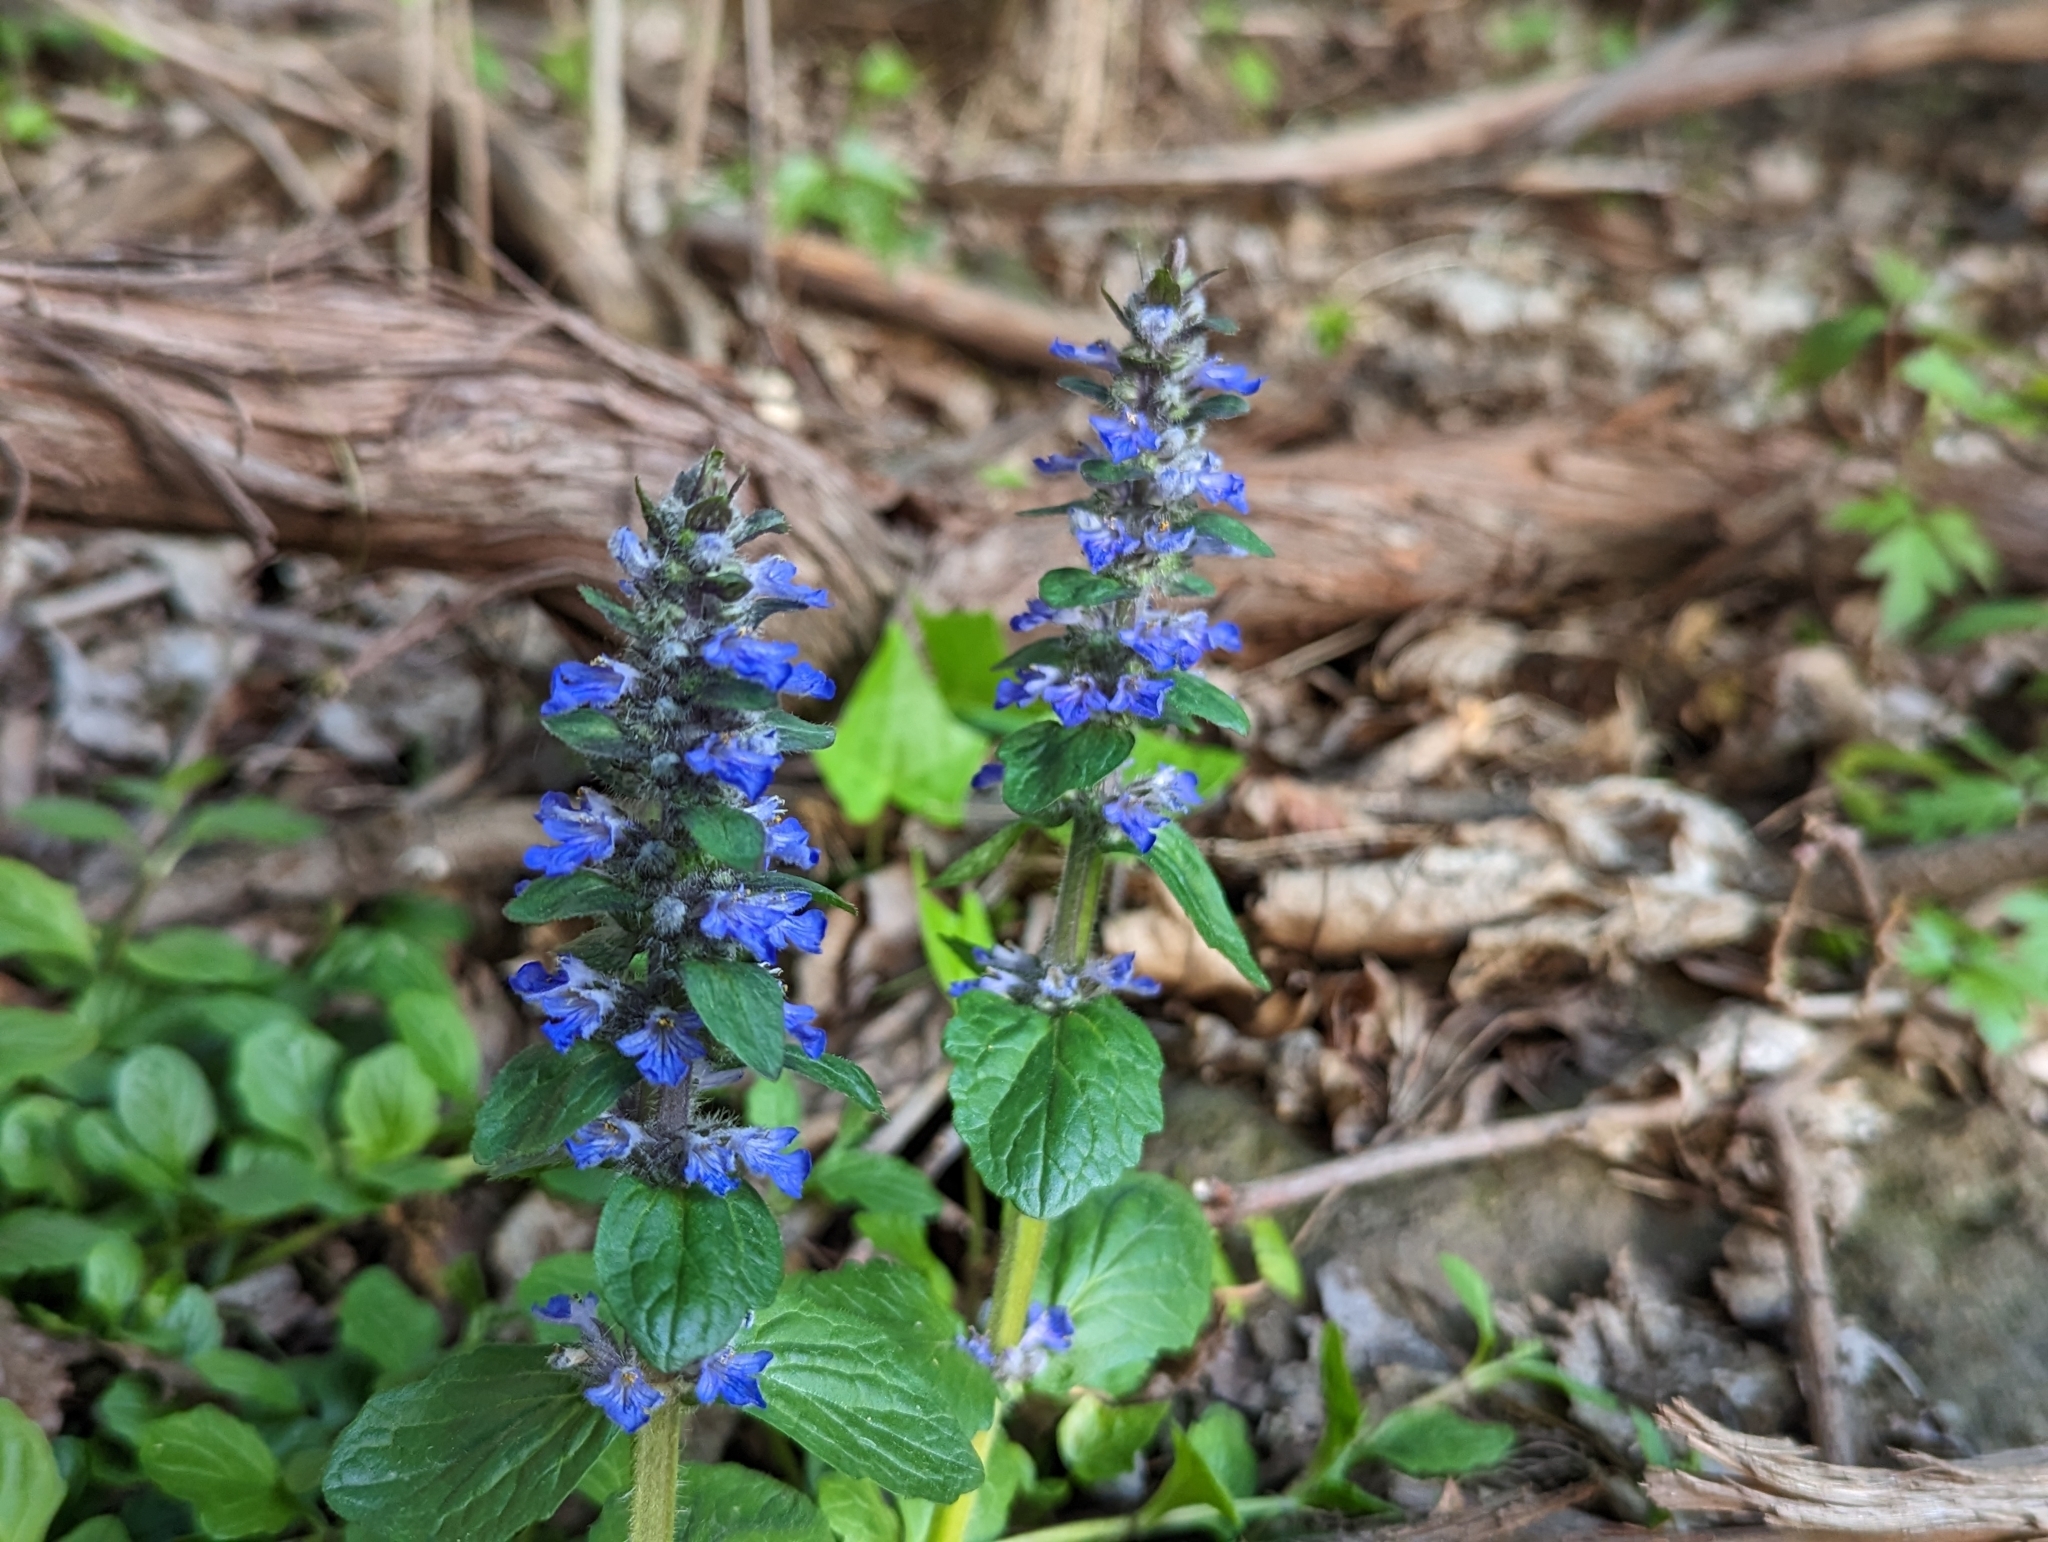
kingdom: Plantae
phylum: Tracheophyta
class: Magnoliopsida
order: Lamiales
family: Lamiaceae
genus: Ajuga
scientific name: Ajuga reptans
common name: Bugle
